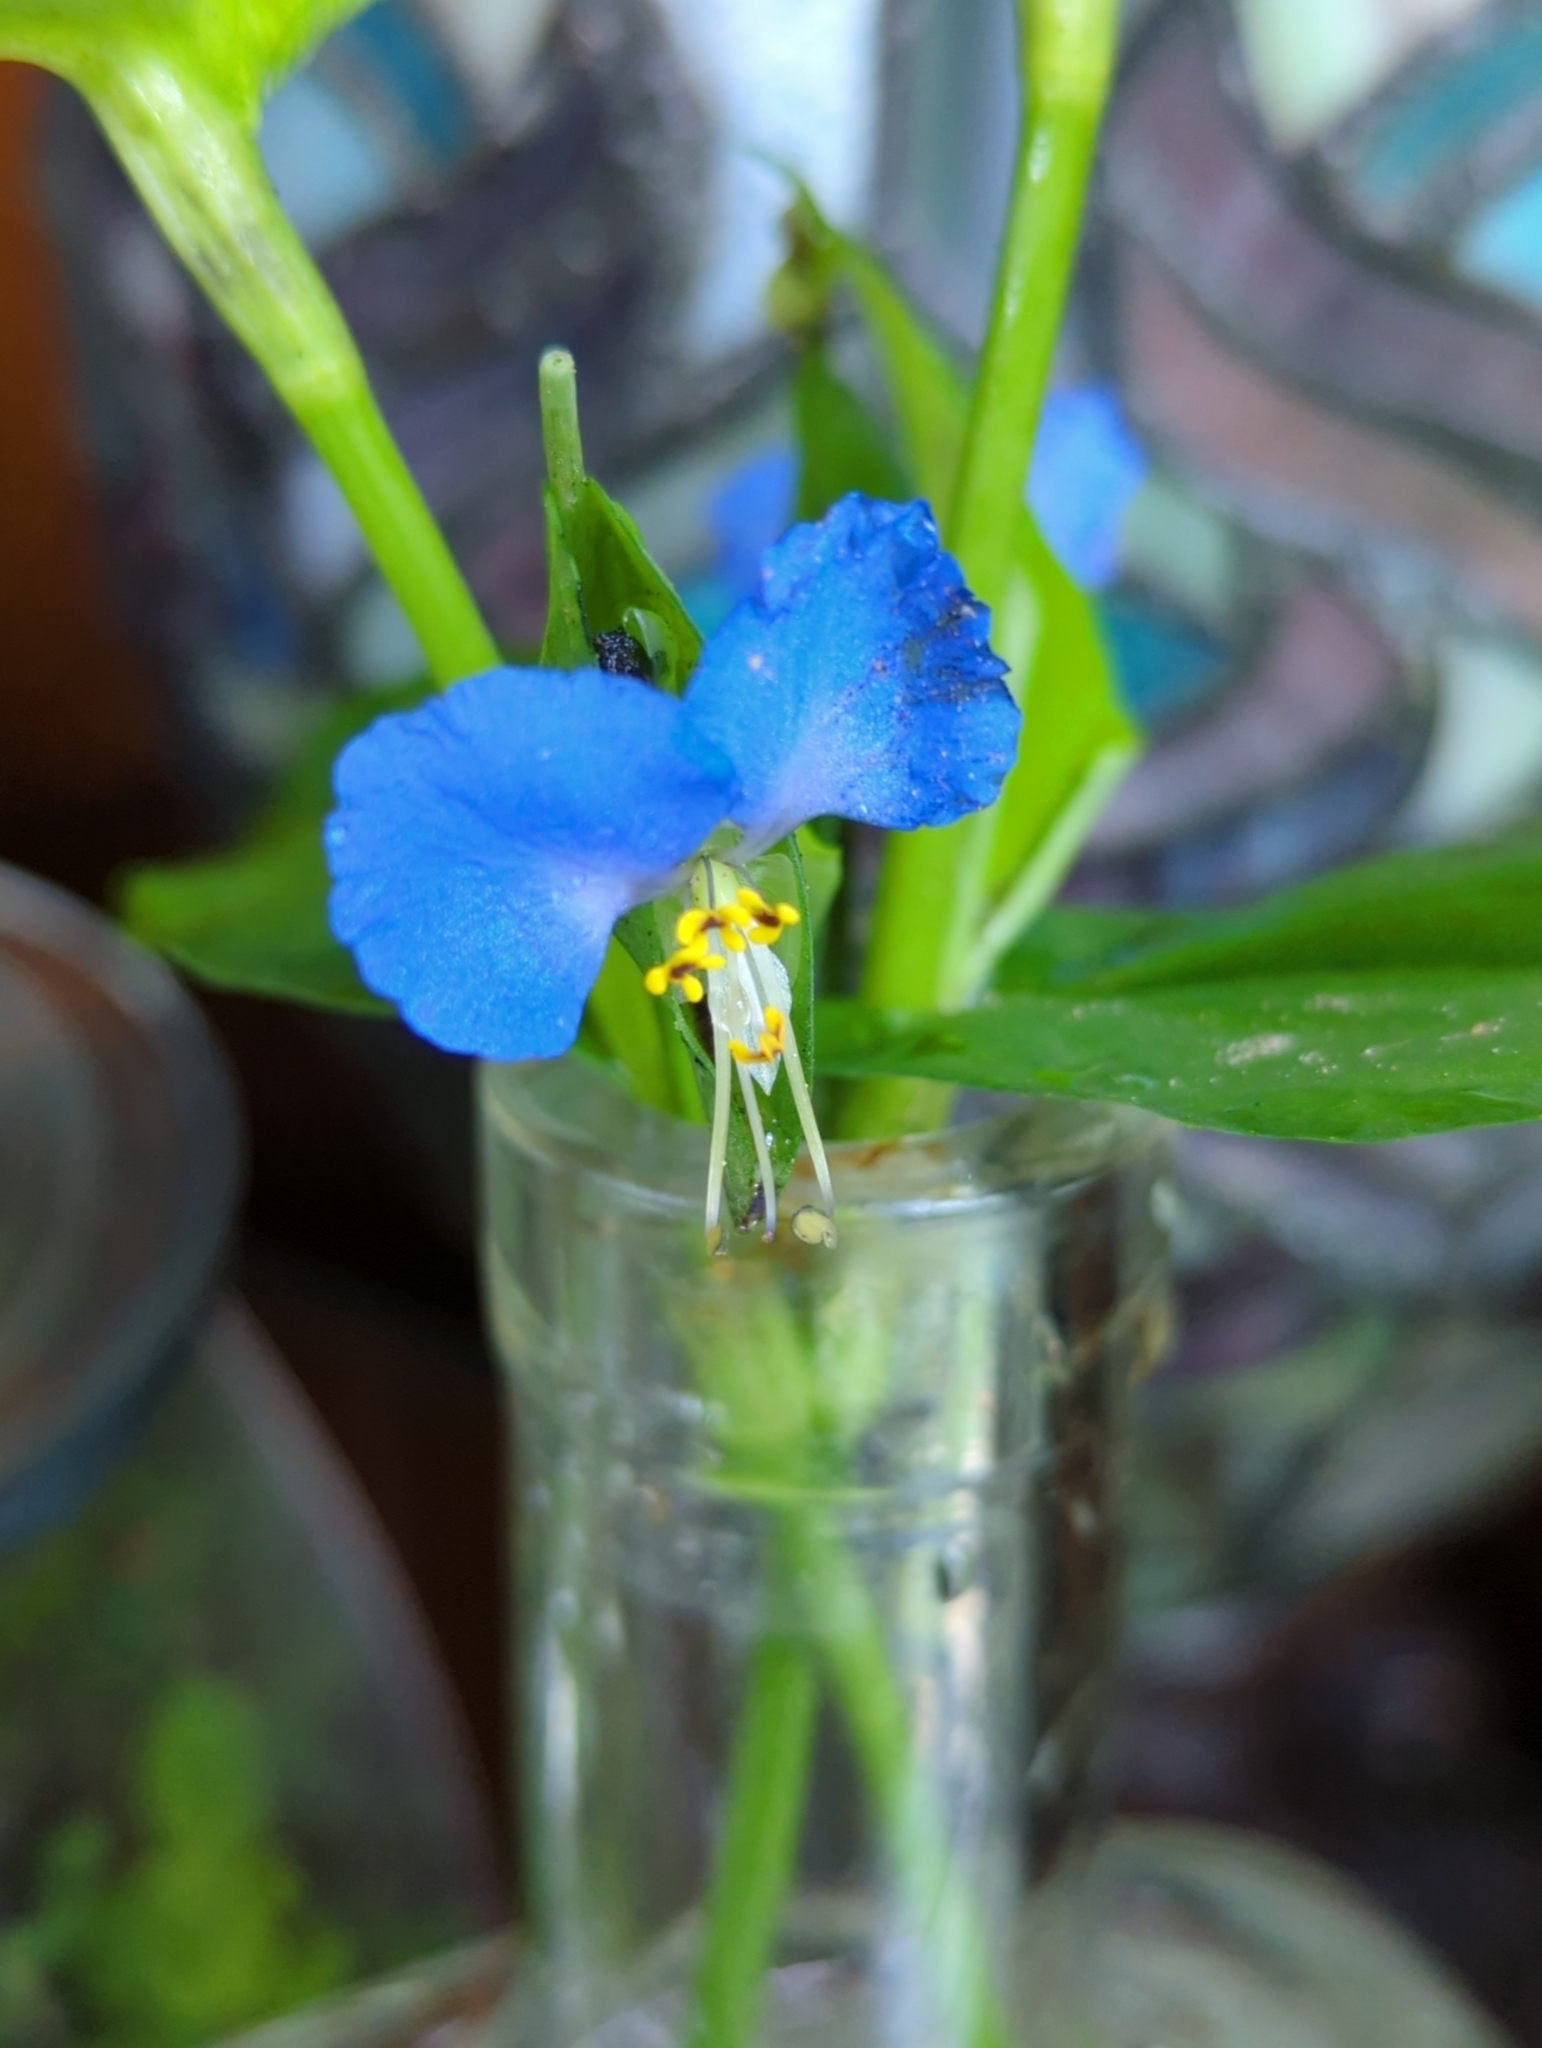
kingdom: Plantae
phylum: Tracheophyta
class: Liliopsida
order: Commelinales
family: Commelinaceae
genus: Commelina
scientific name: Commelina communis
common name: Asiatic dayflower
